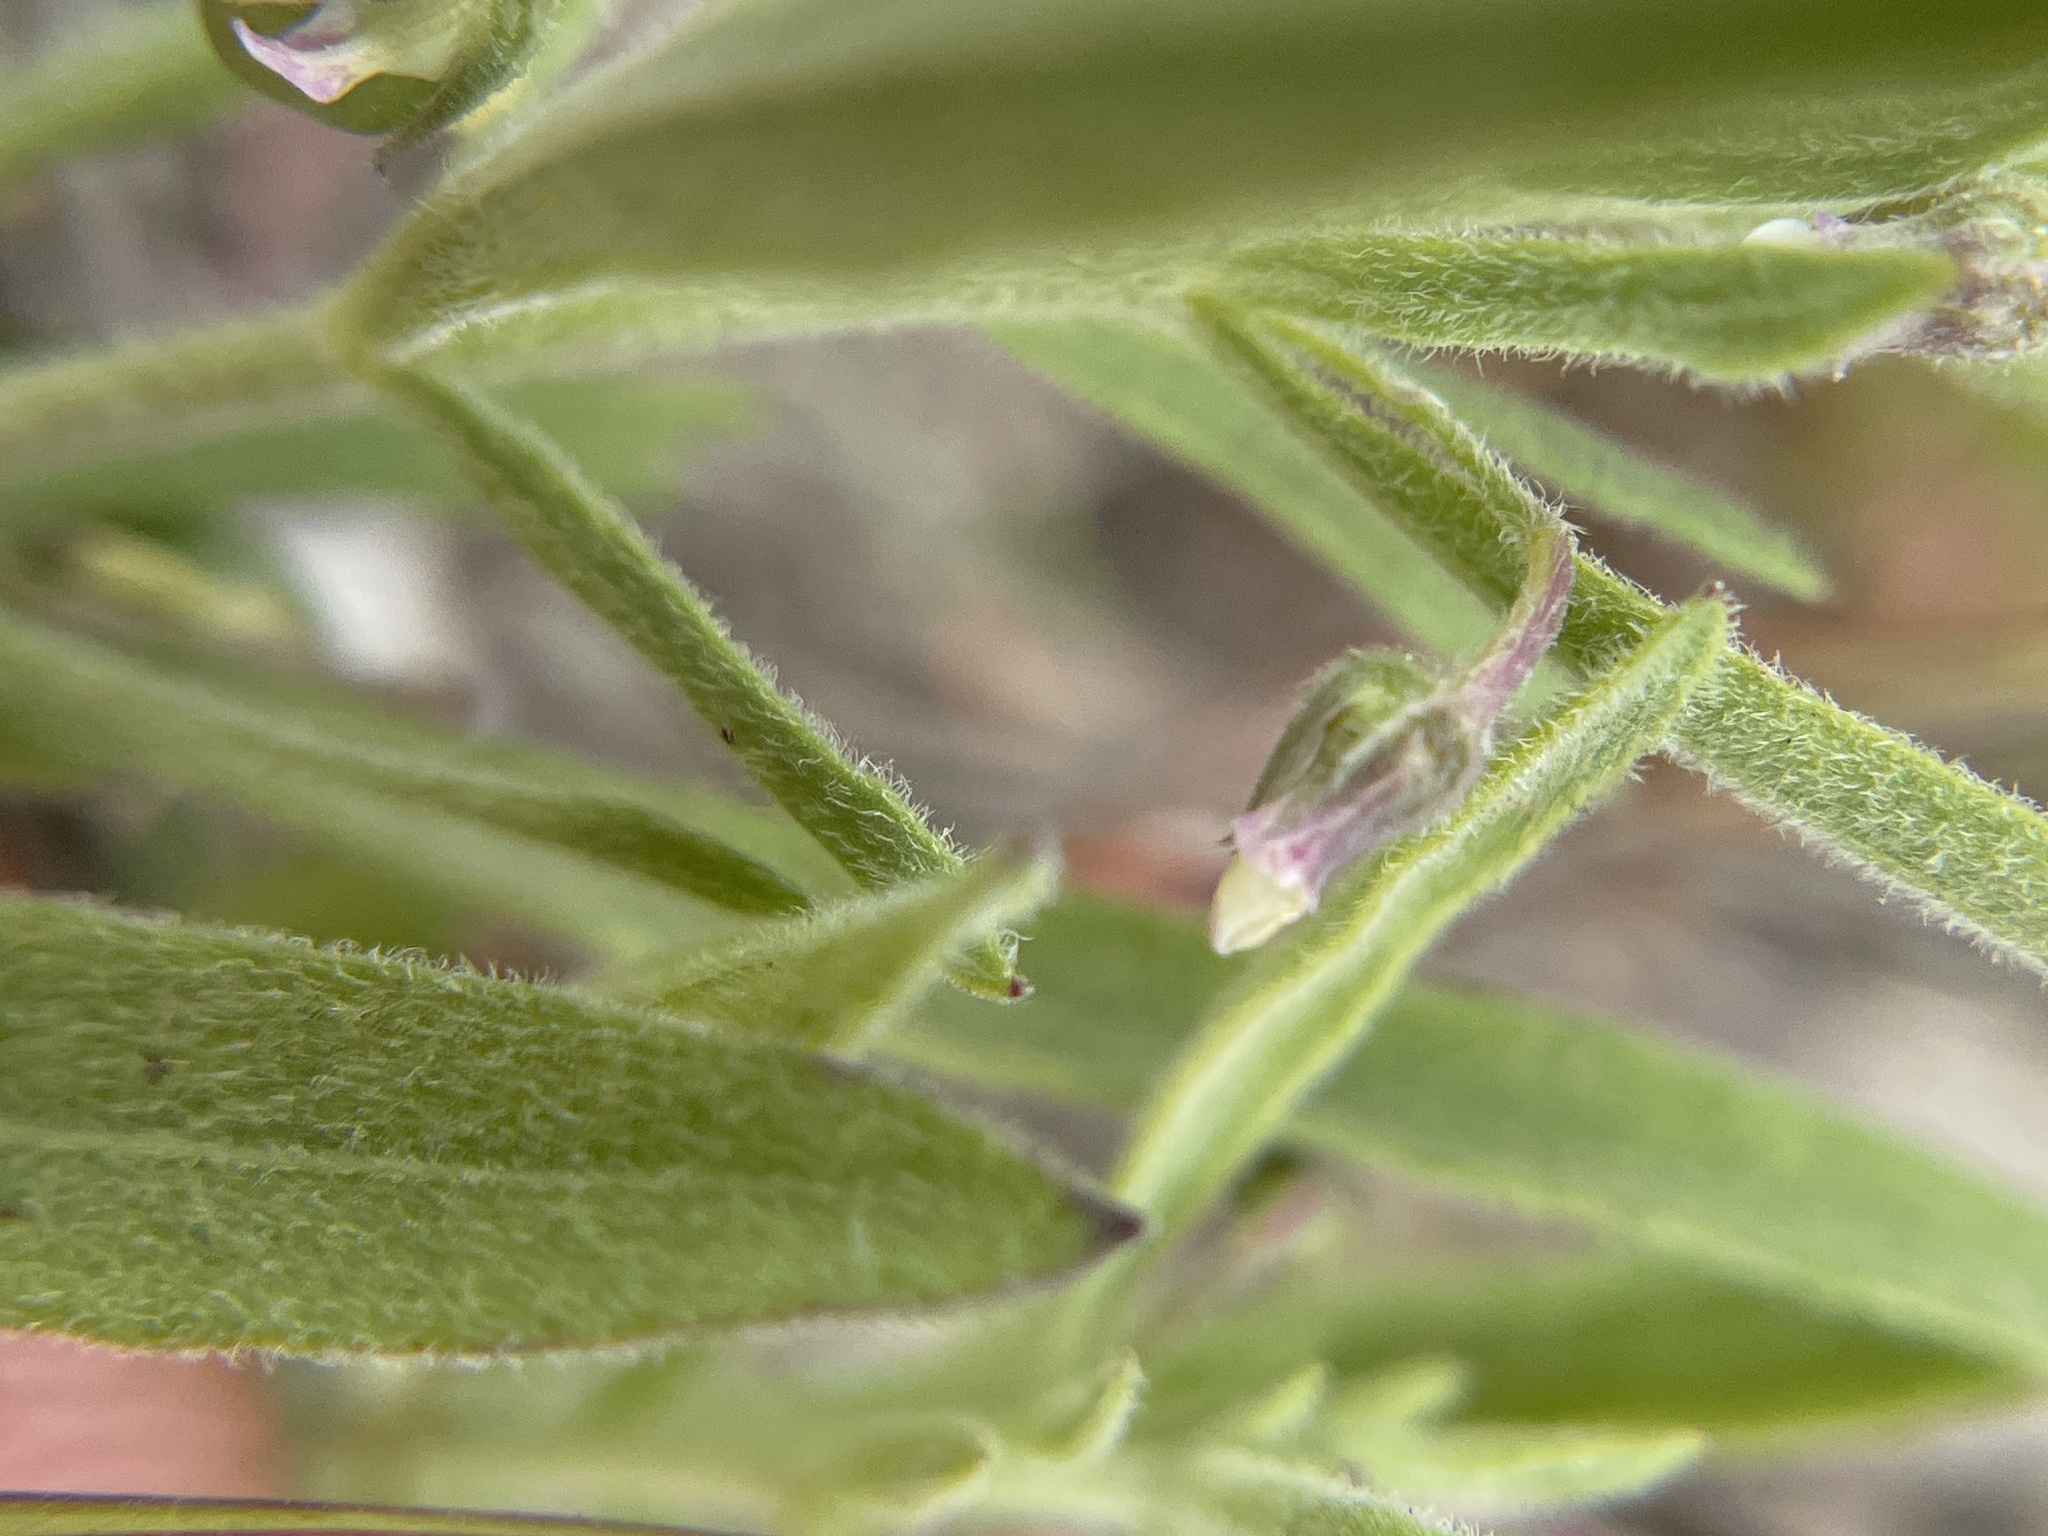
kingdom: Plantae
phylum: Tracheophyta
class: Magnoliopsida
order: Malpighiales
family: Violaceae
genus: Pombalia
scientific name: Pombalia verticillata
